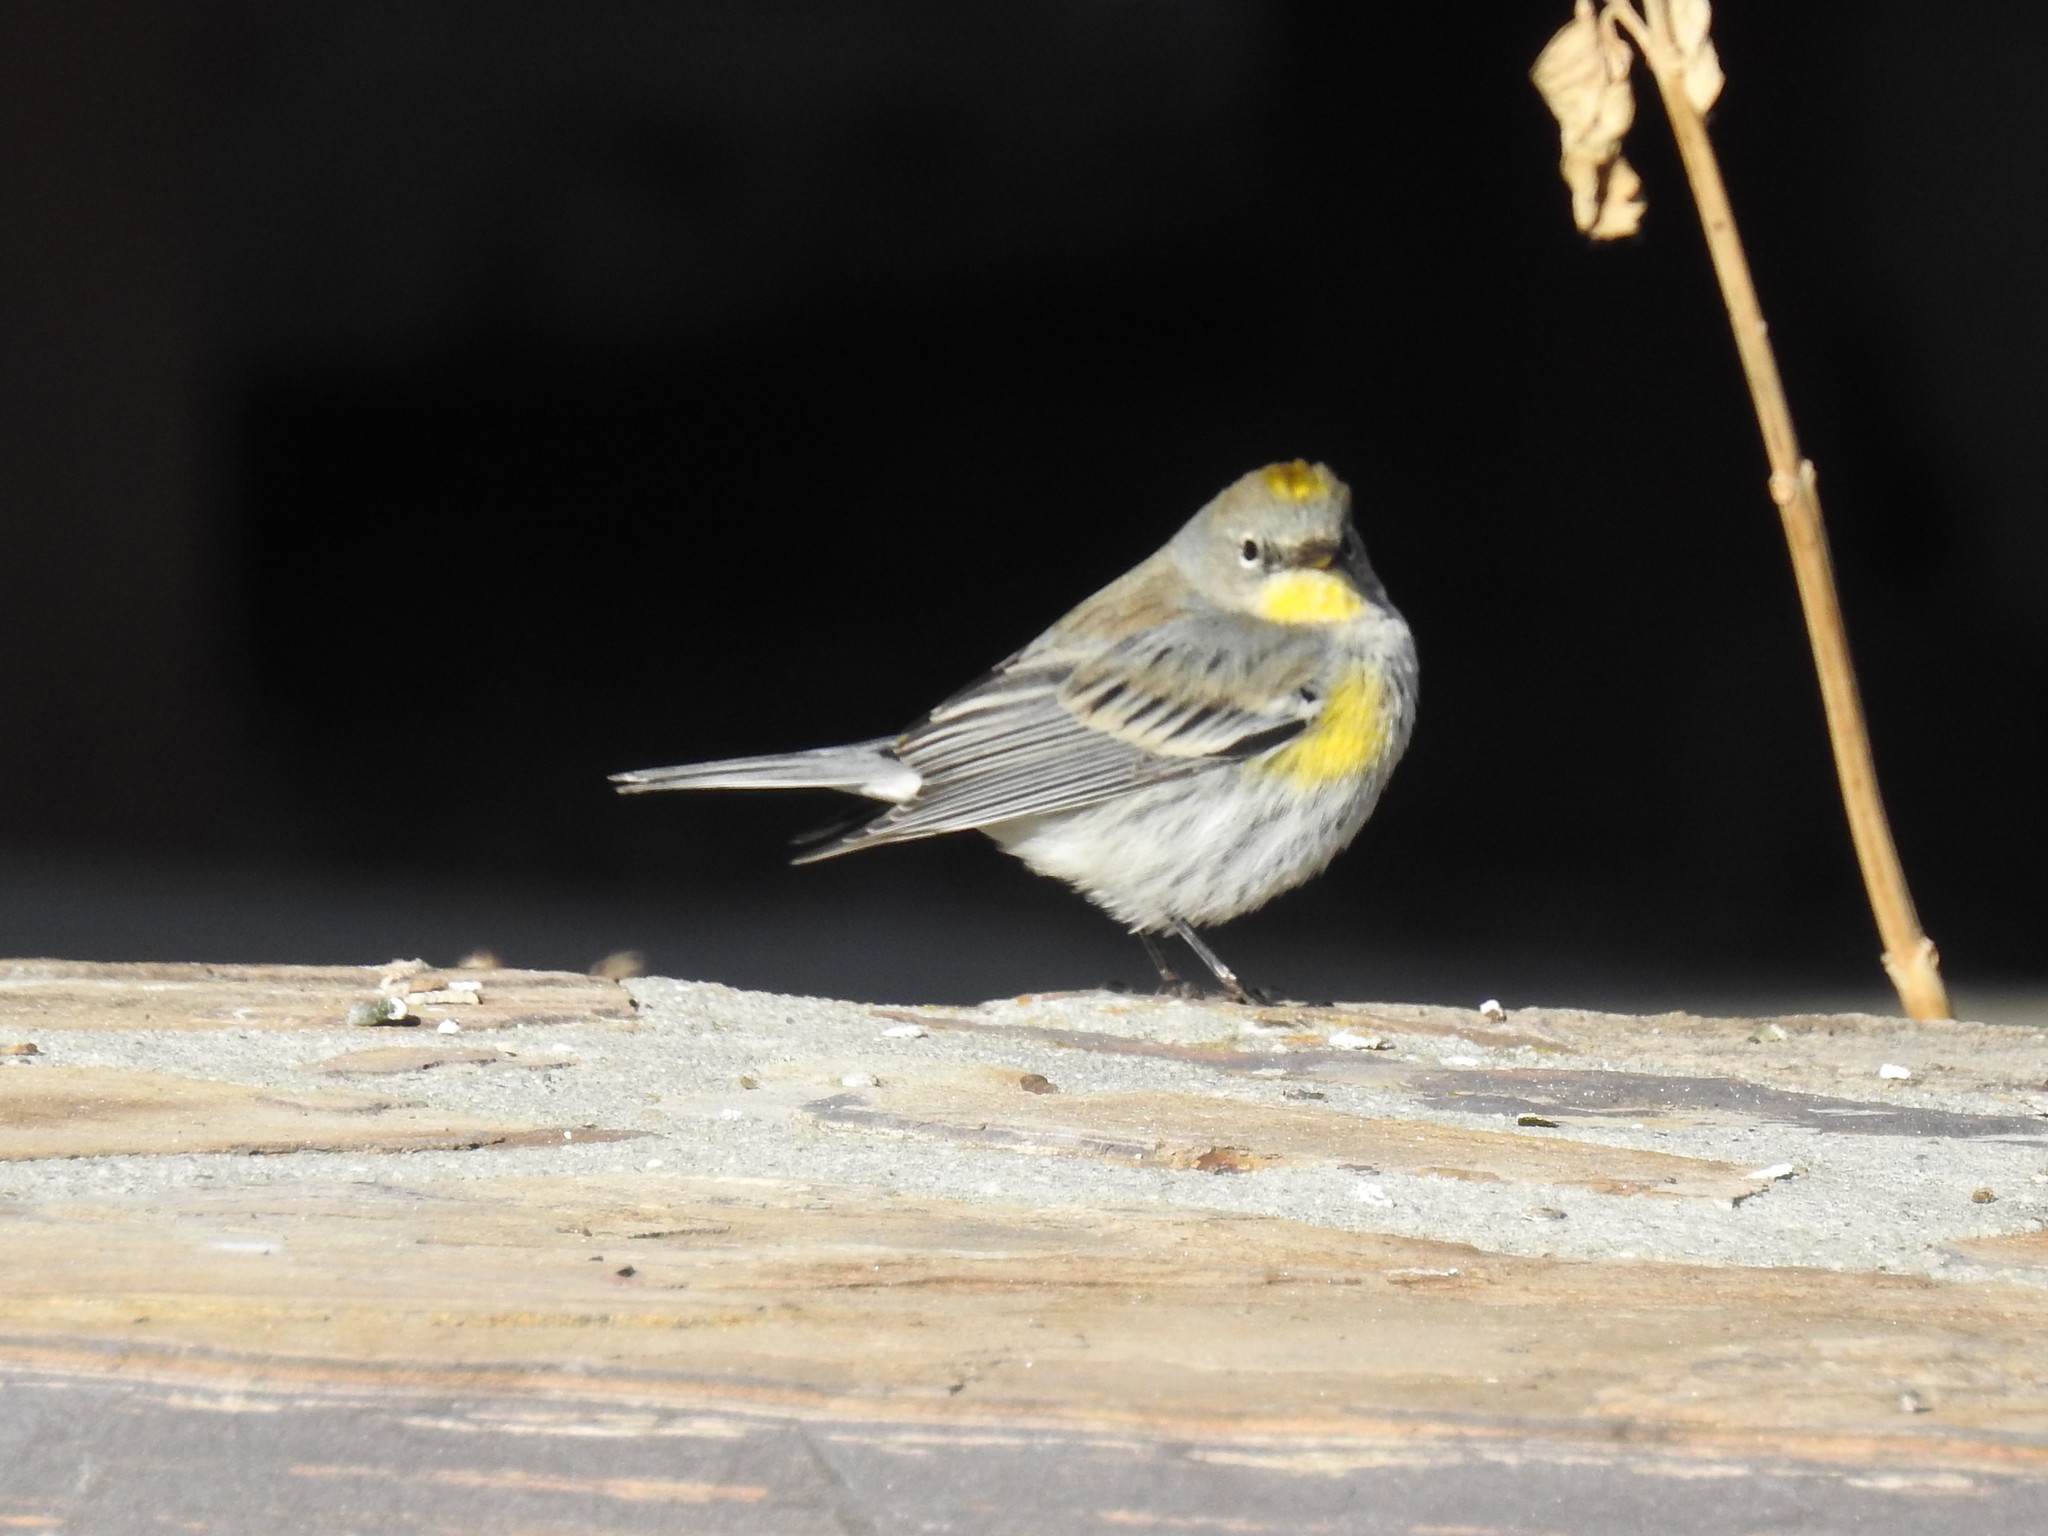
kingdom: Animalia
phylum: Chordata
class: Aves
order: Passeriformes
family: Parulidae
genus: Setophaga
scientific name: Setophaga coronata
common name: Myrtle warbler
